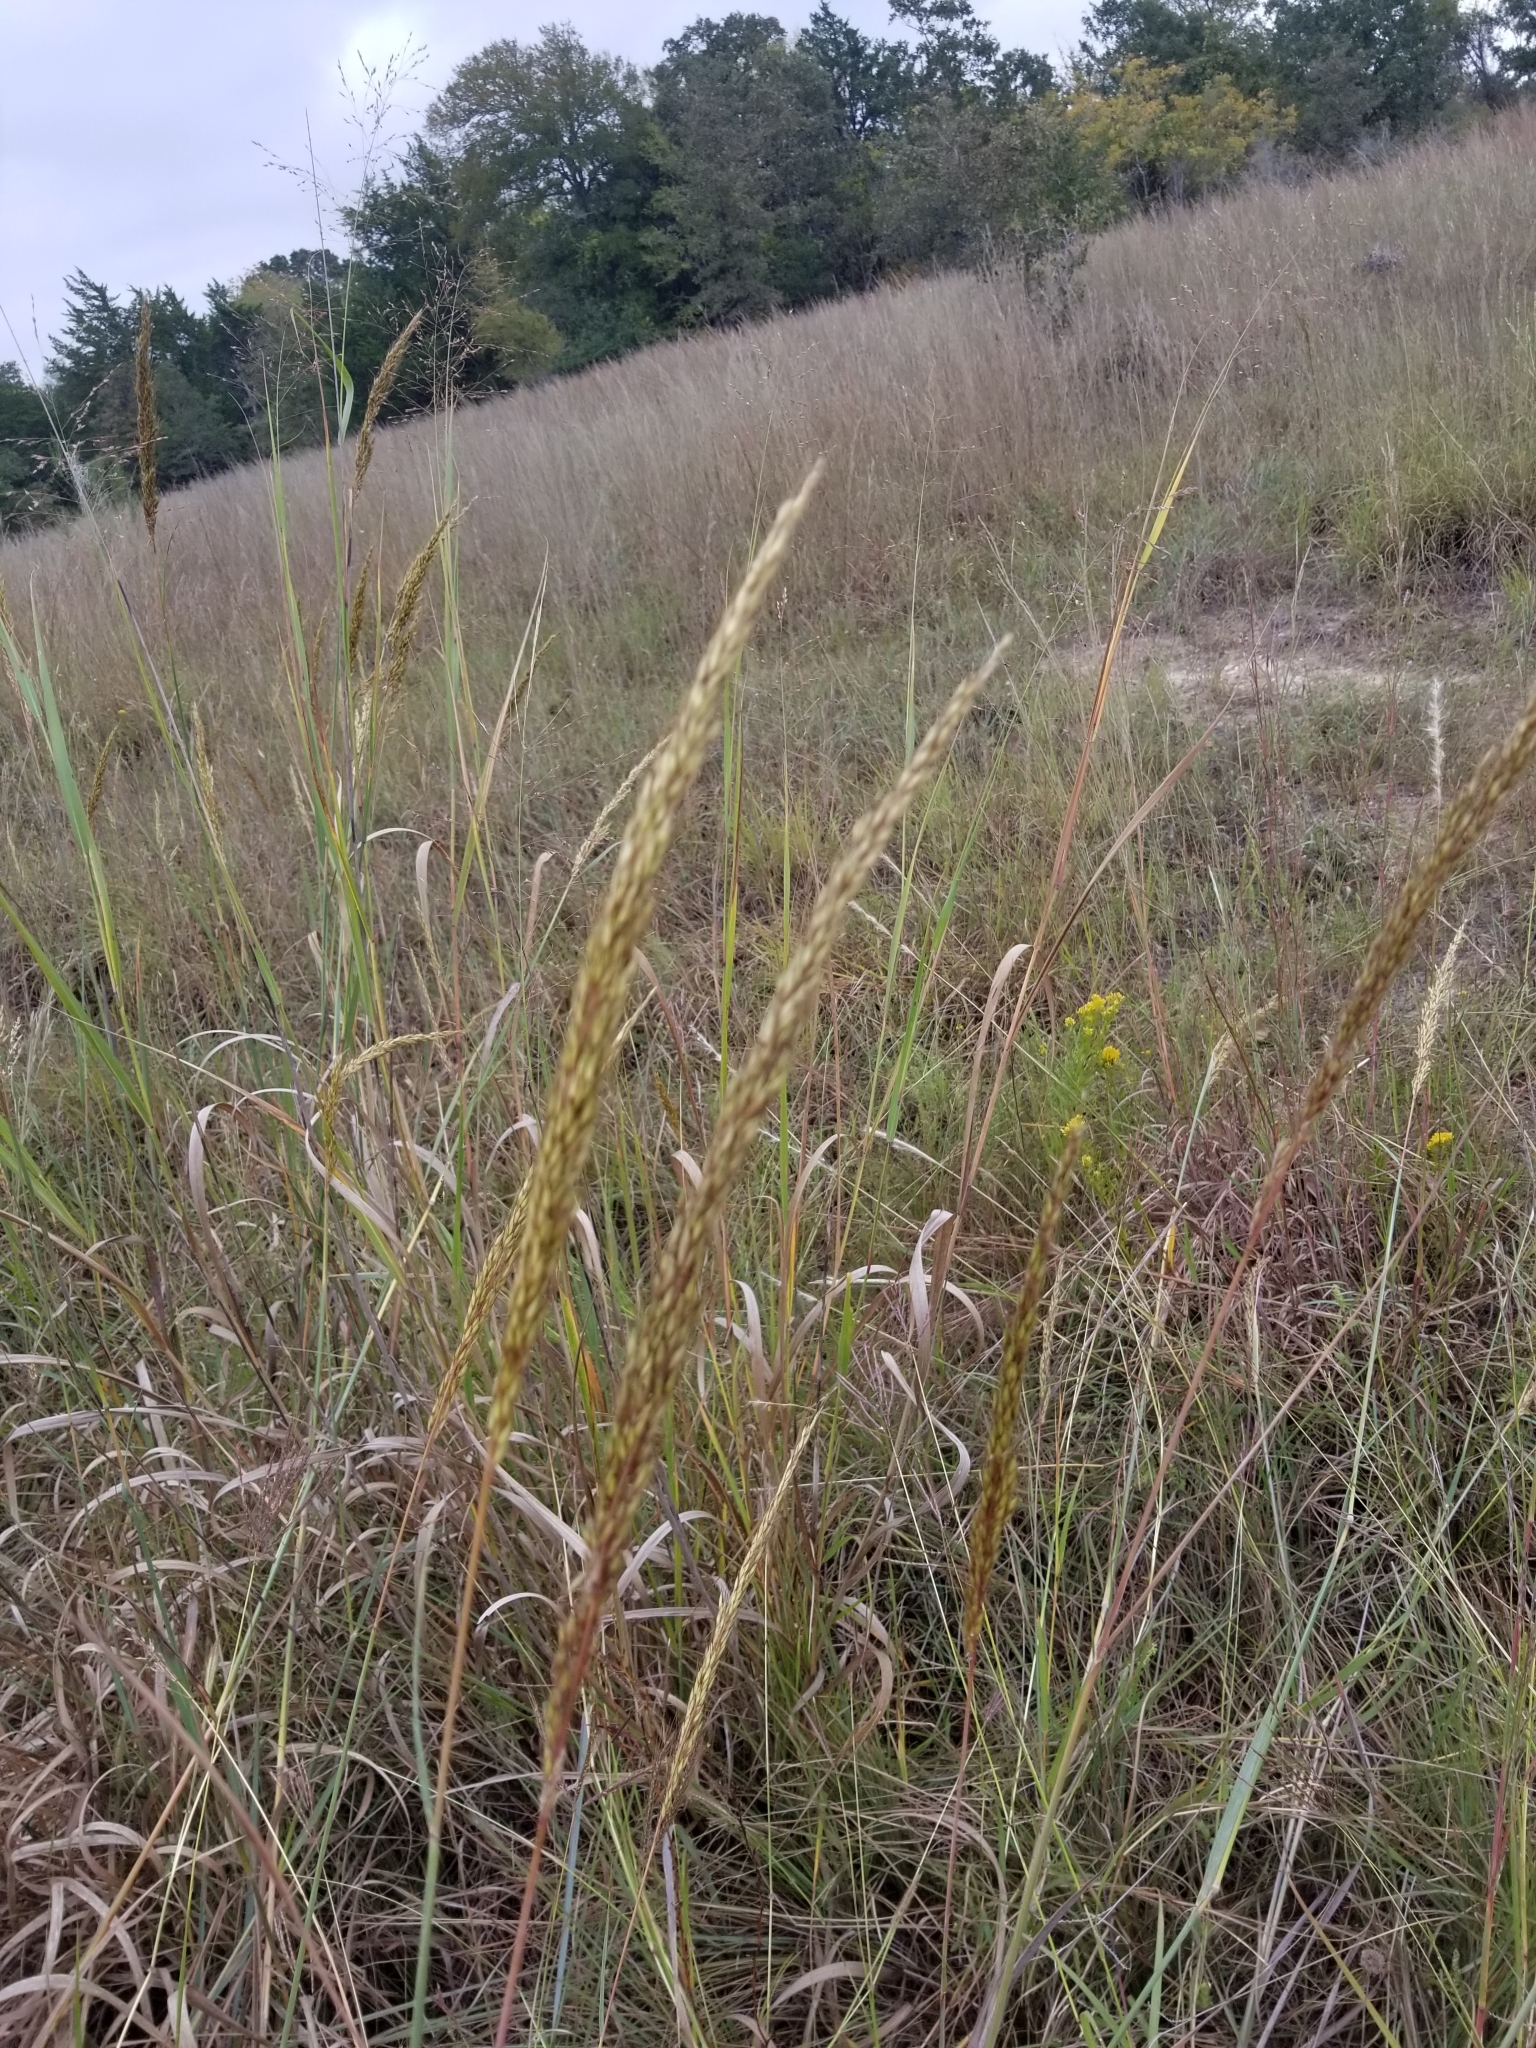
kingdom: Plantae
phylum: Tracheophyta
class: Liliopsida
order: Poales
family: Poaceae
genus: Sorghastrum
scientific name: Sorghastrum nutans
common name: Indian grass
